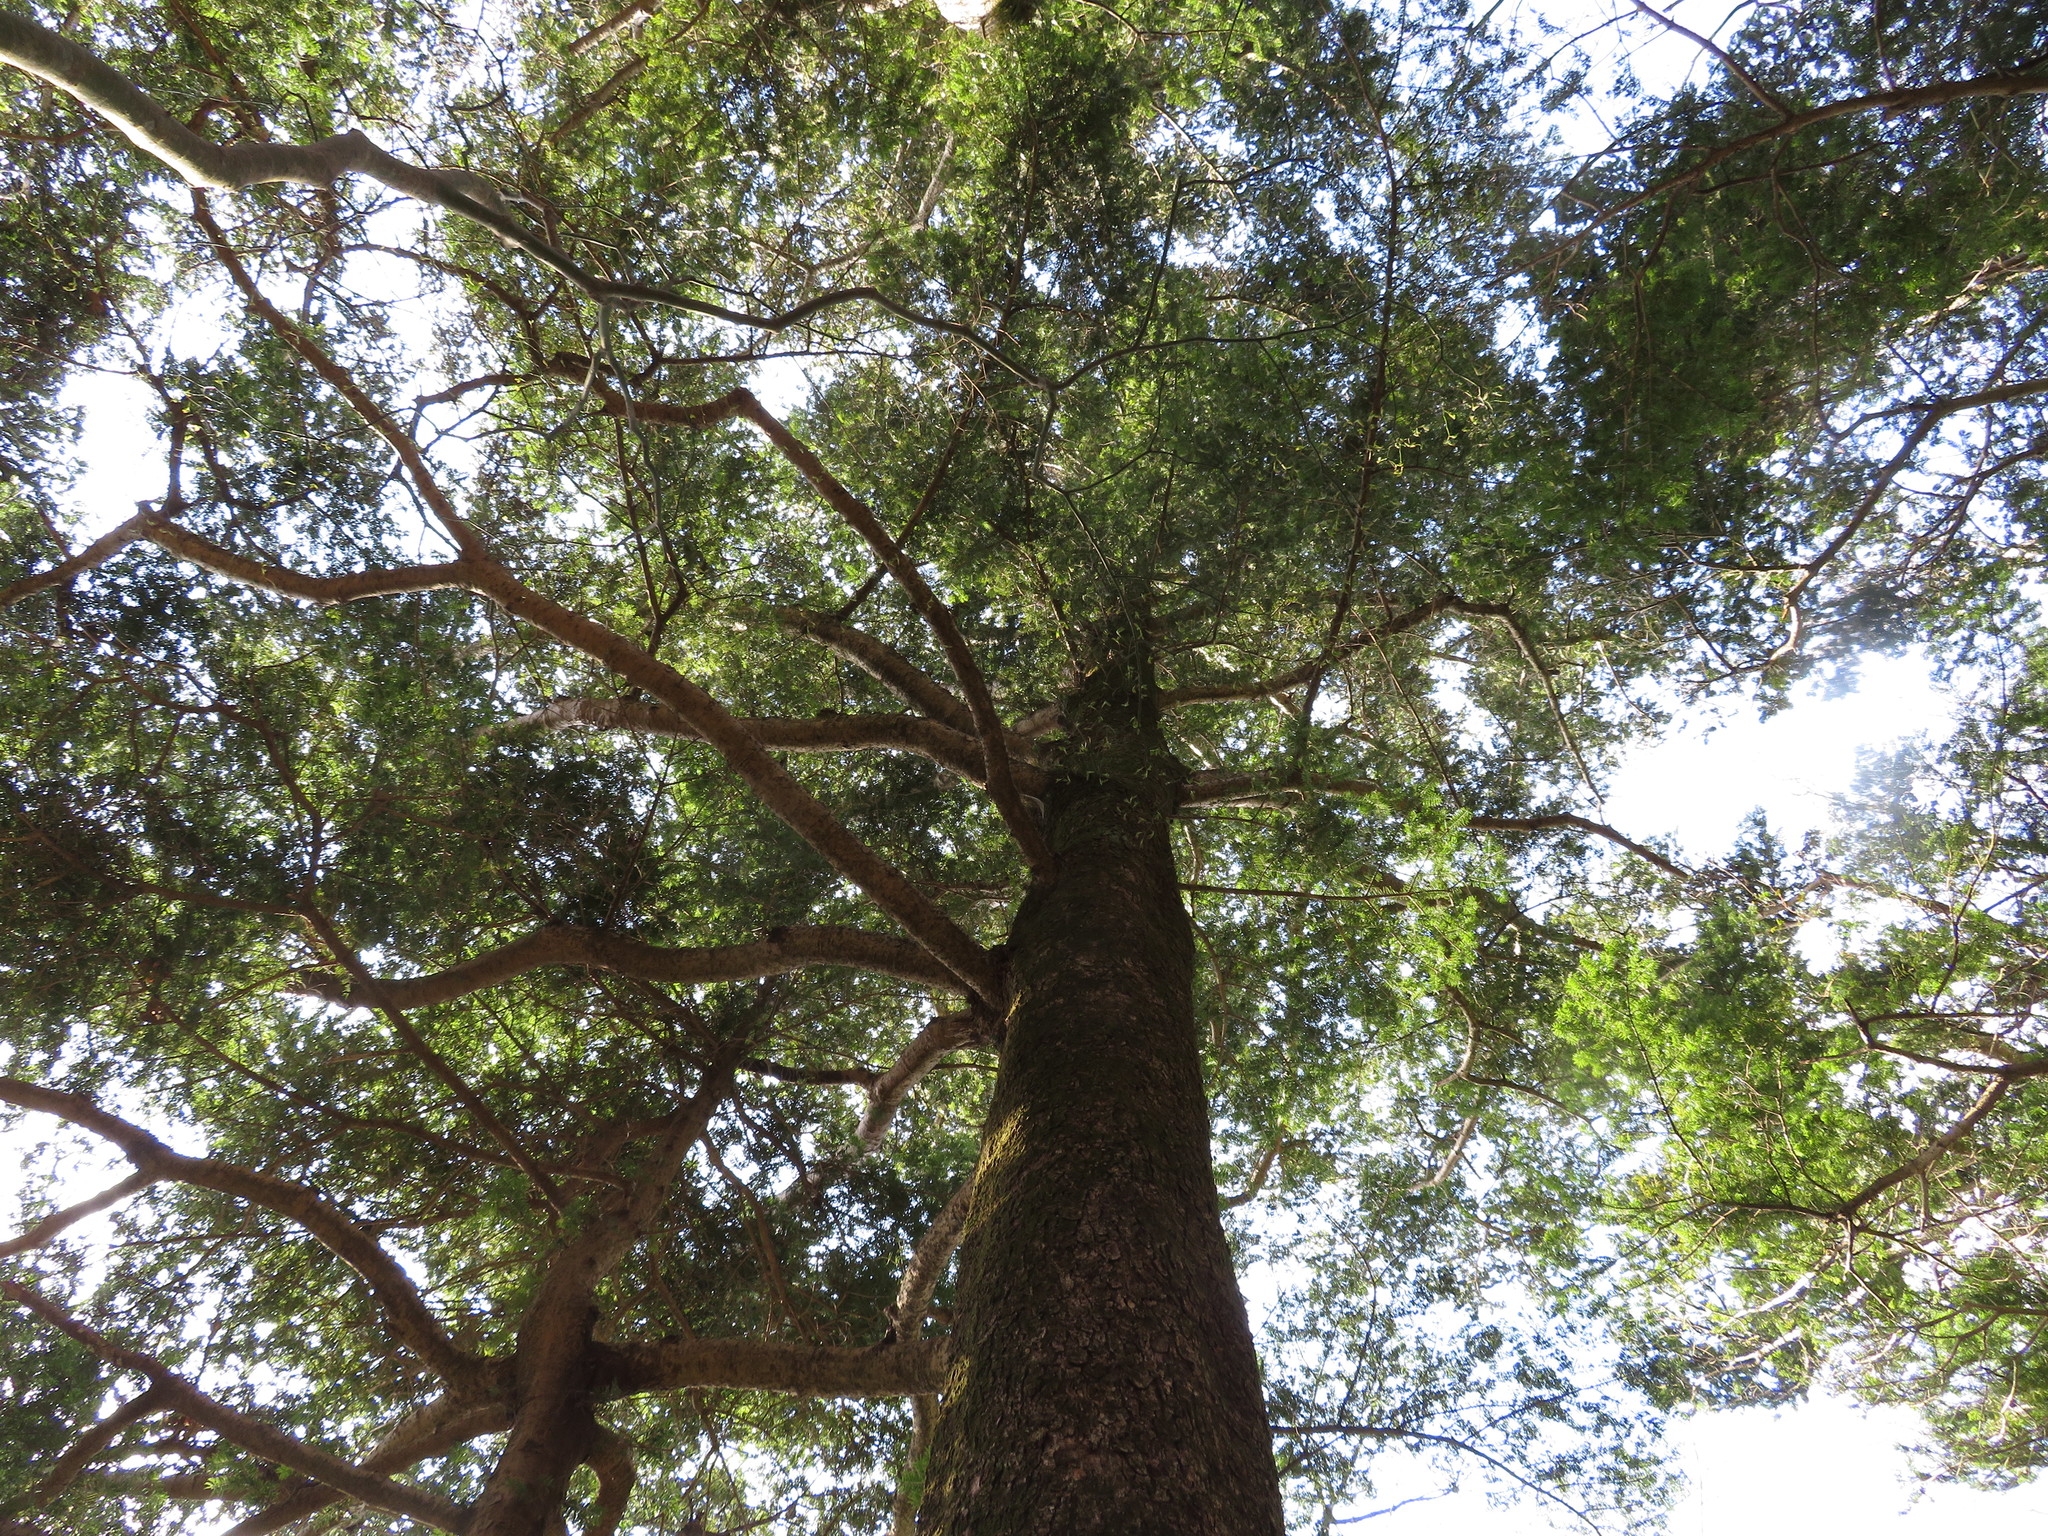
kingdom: Plantae
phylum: Tracheophyta
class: Pinopsida
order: Pinales
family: Pinaceae
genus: Abies
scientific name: Abies firma
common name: Momi fir
